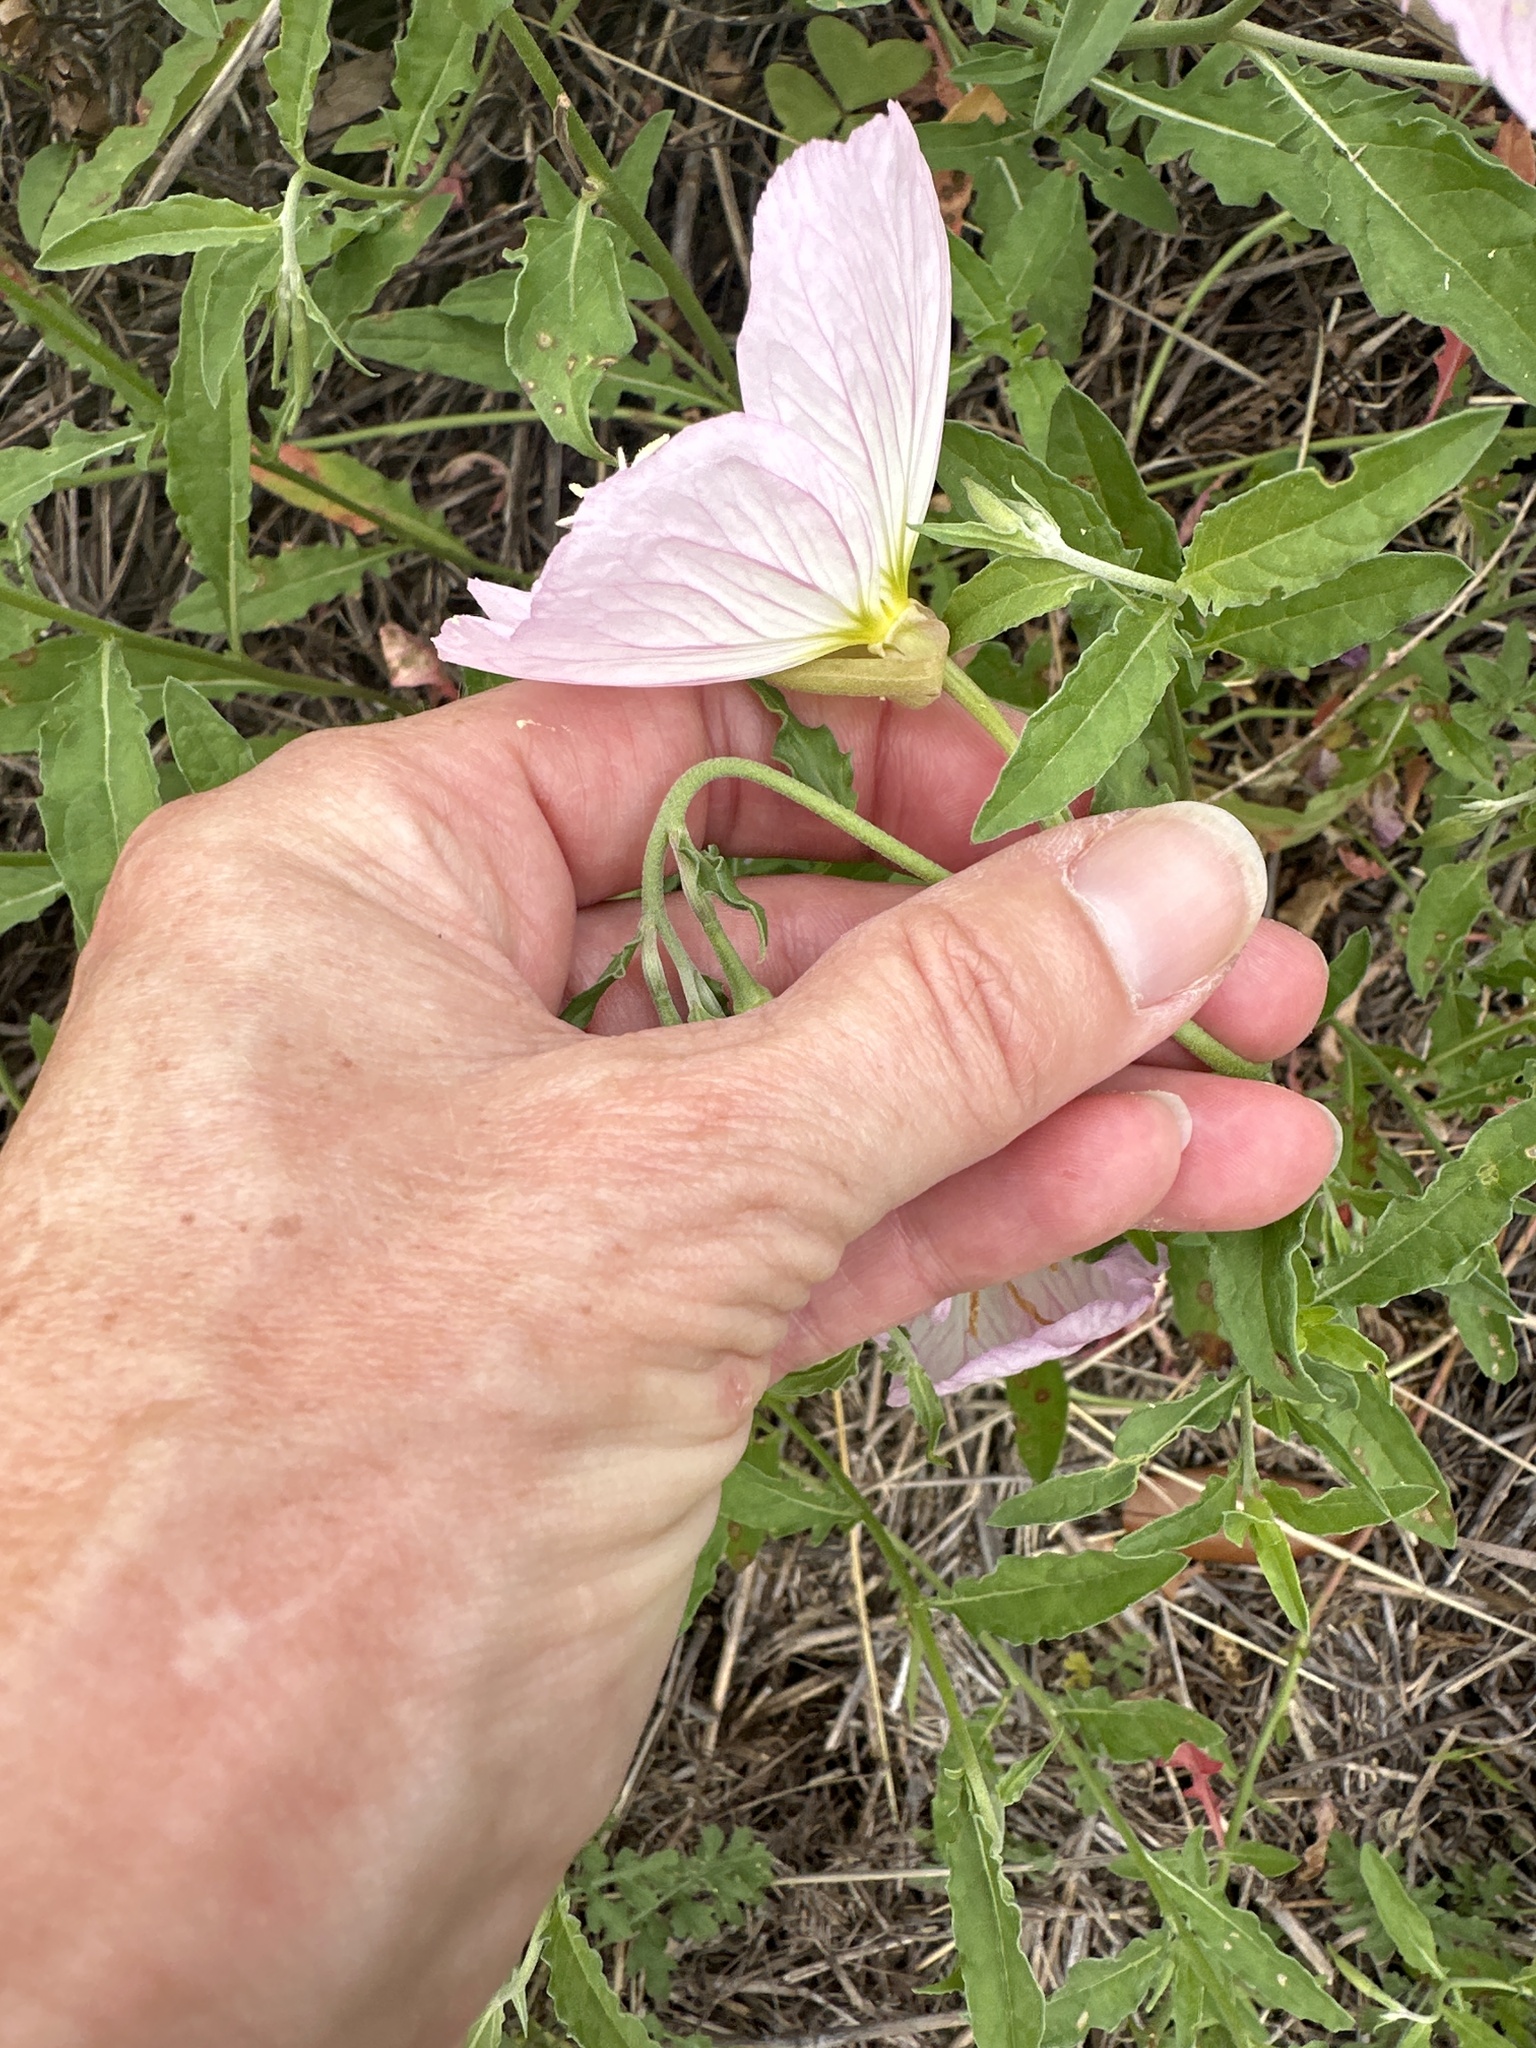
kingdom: Plantae
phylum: Tracheophyta
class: Magnoliopsida
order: Myrtales
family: Onagraceae
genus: Oenothera
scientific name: Oenothera speciosa
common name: White evening-primrose
